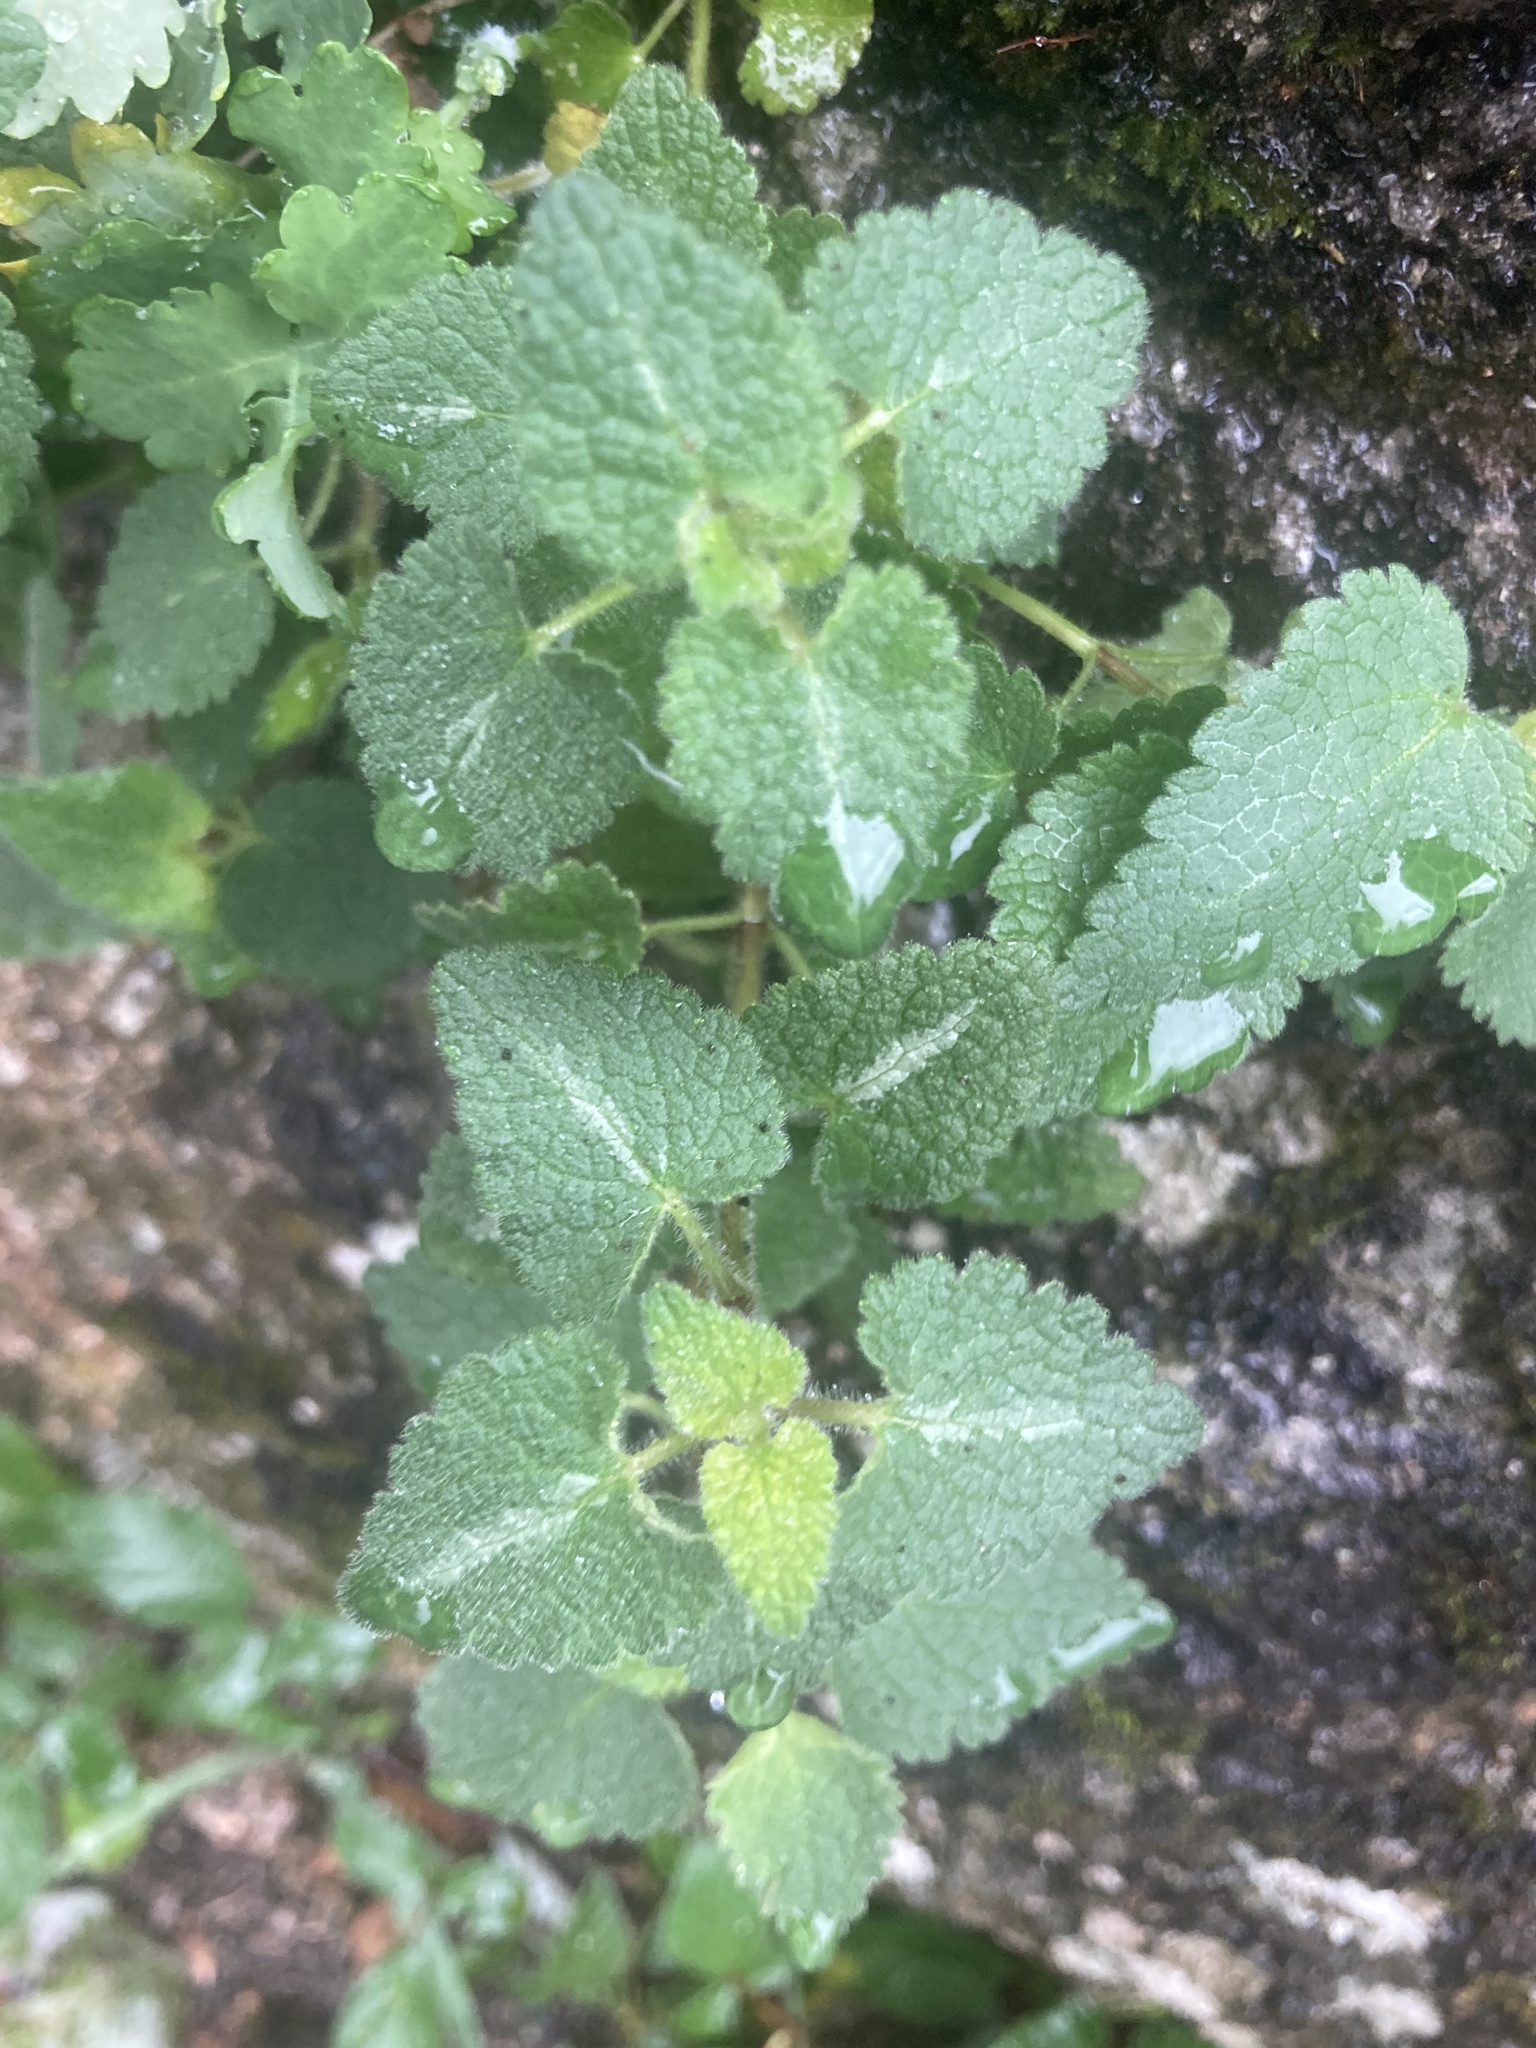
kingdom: Plantae
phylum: Tracheophyta
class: Magnoliopsida
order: Lamiales
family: Lamiaceae
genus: Lamium
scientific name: Lamium maculatum
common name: Spotted dead-nettle
